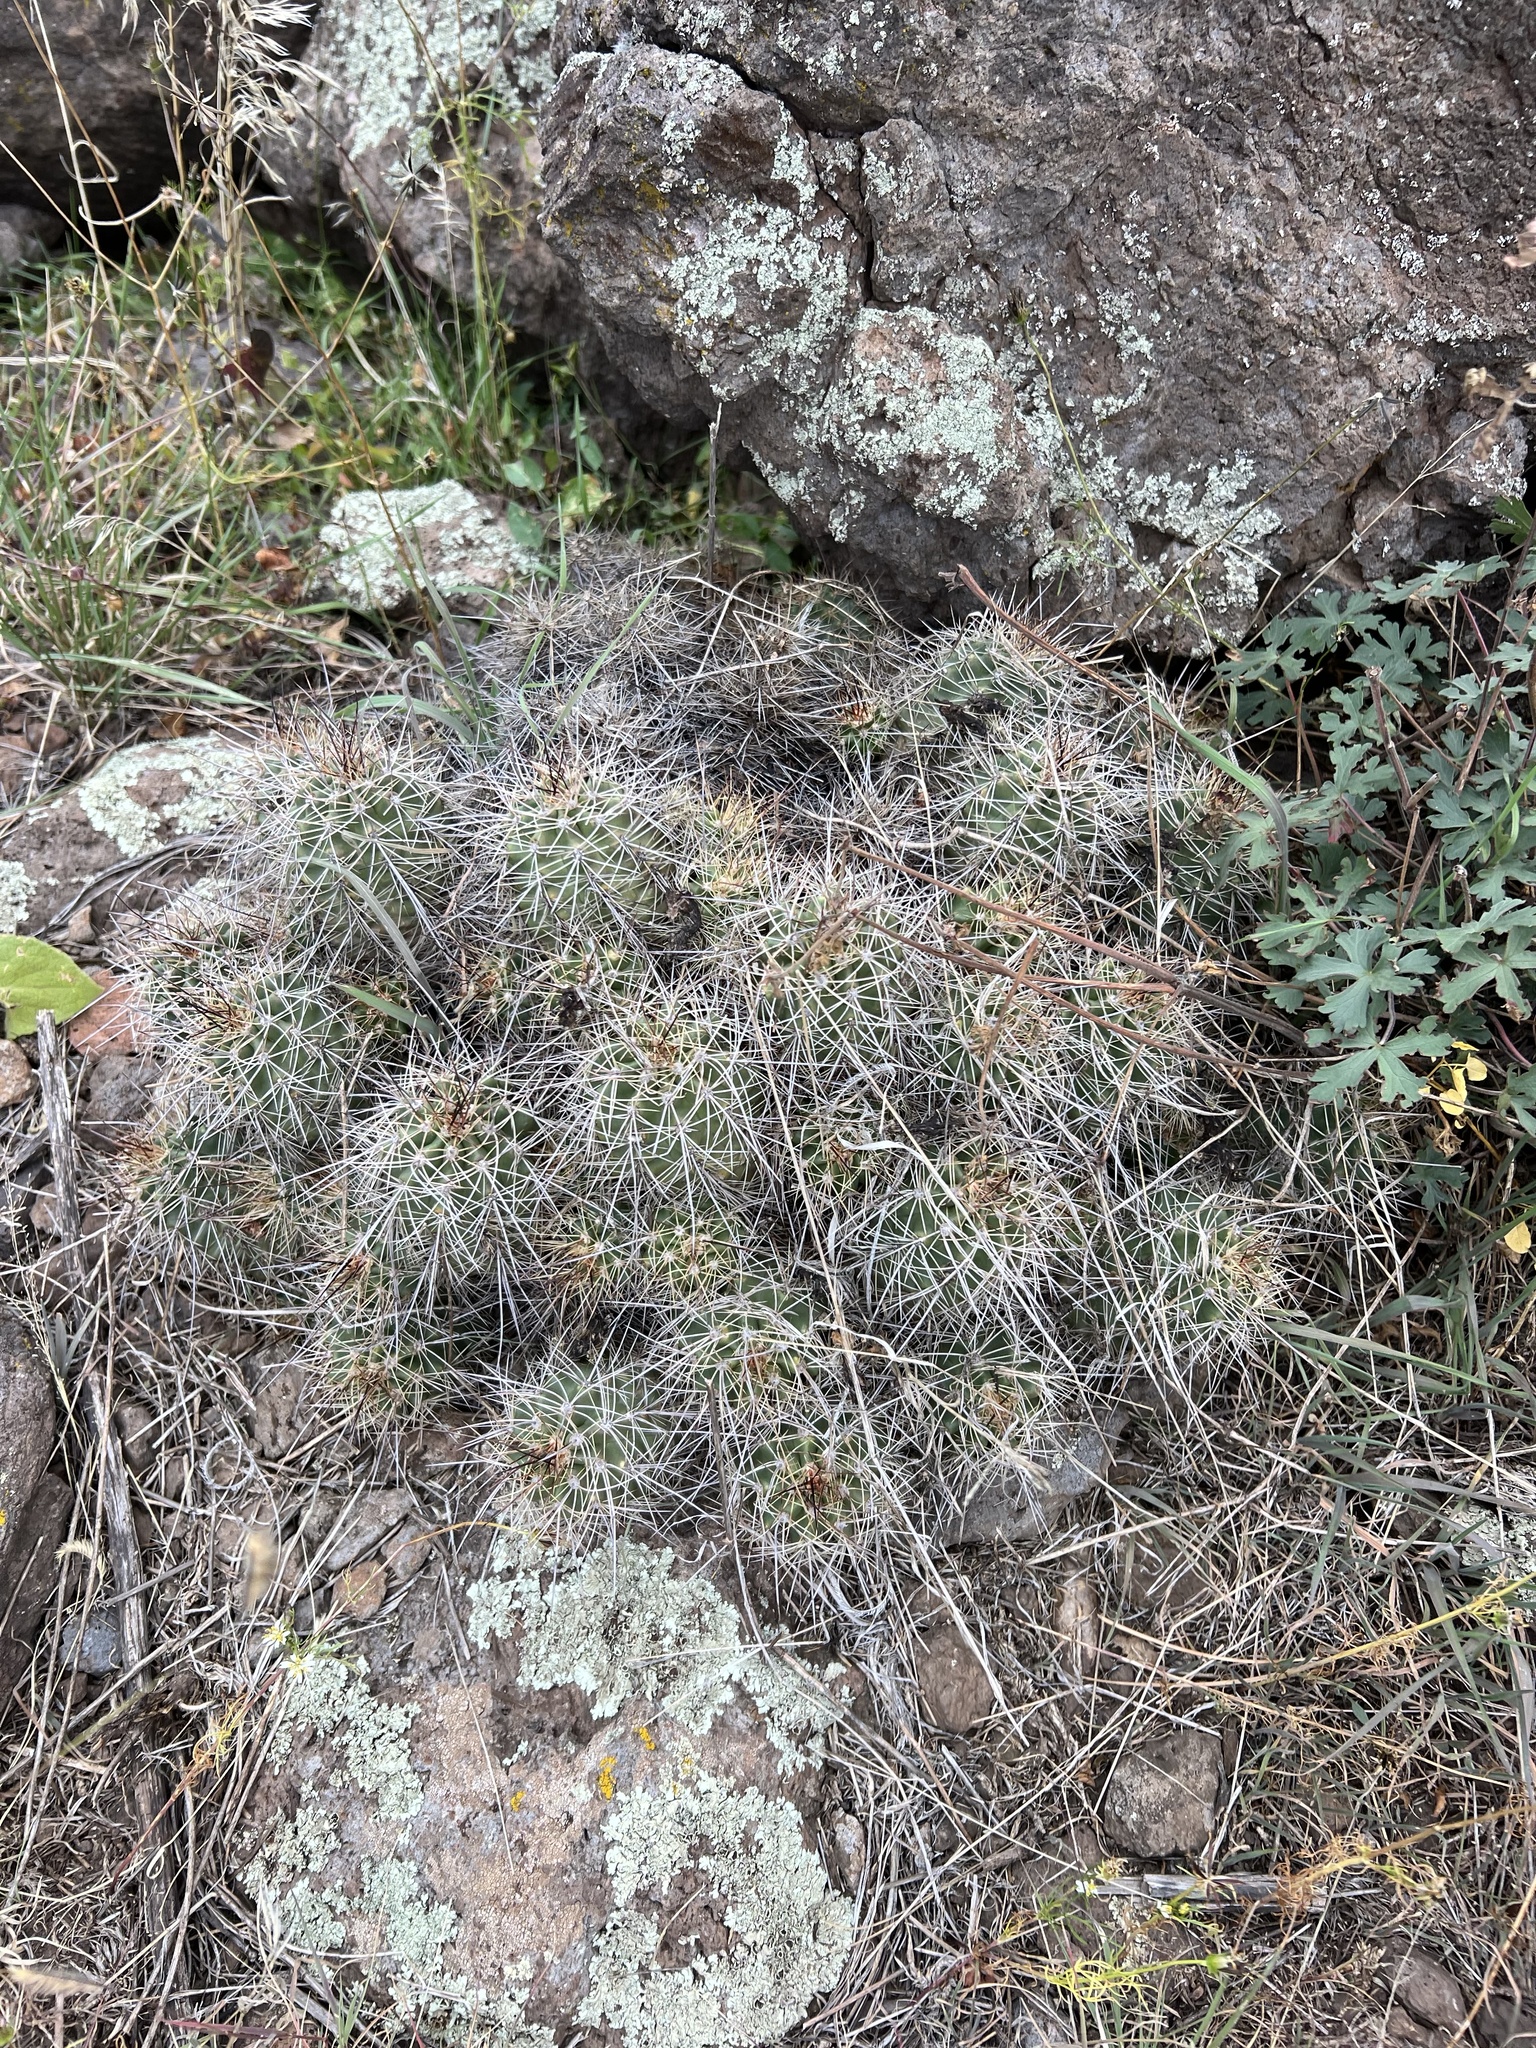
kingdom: Plantae
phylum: Tracheophyta
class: Magnoliopsida
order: Caryophyllales
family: Cactaceae
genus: Echinocereus
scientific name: Echinocereus bakeri
